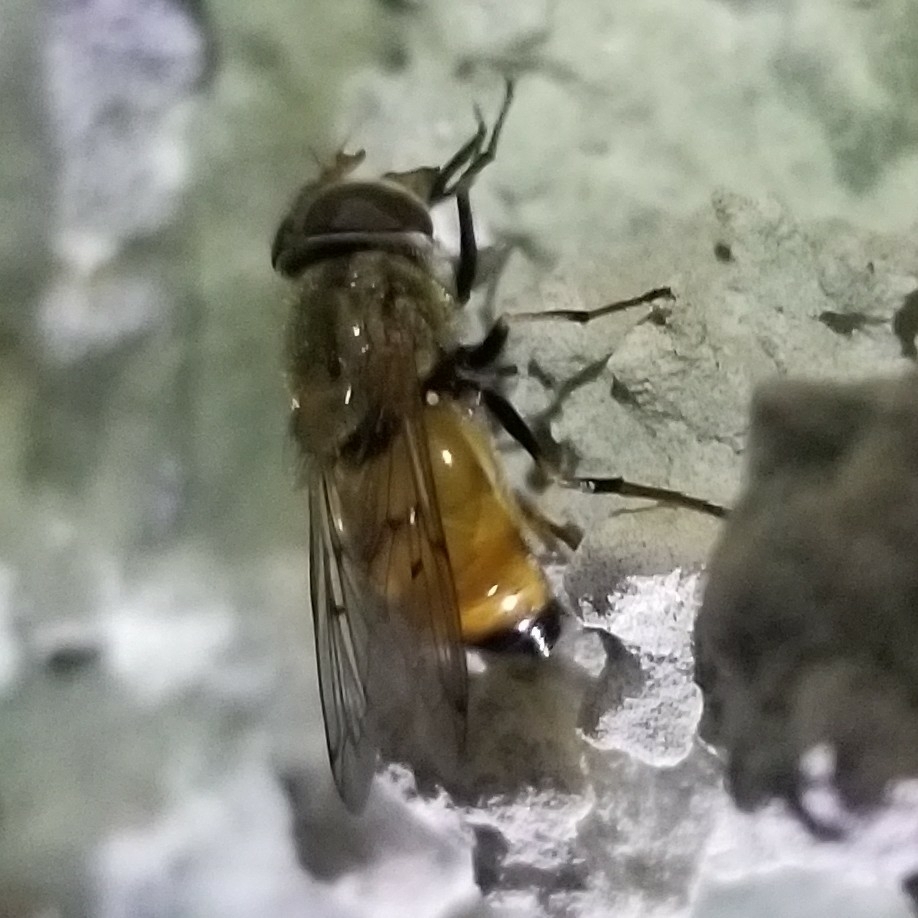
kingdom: Animalia
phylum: Arthropoda
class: Insecta
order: Diptera
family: Syrphidae
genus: Copestylum
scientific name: Copestylum haagii
